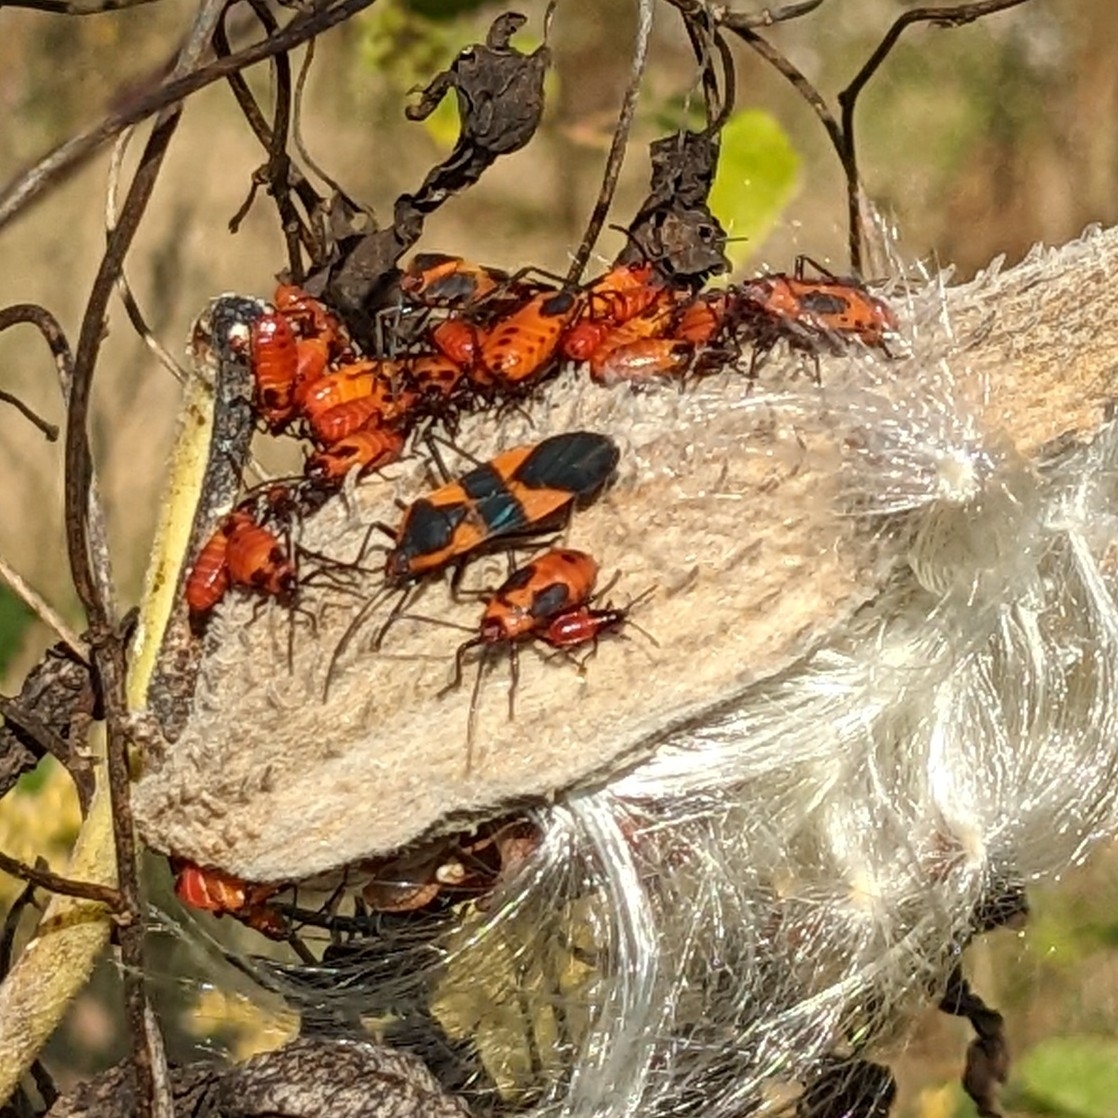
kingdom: Animalia
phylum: Arthropoda
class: Insecta
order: Hemiptera
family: Lygaeidae
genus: Oncopeltus
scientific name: Oncopeltus fasciatus
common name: Large milkweed bug
